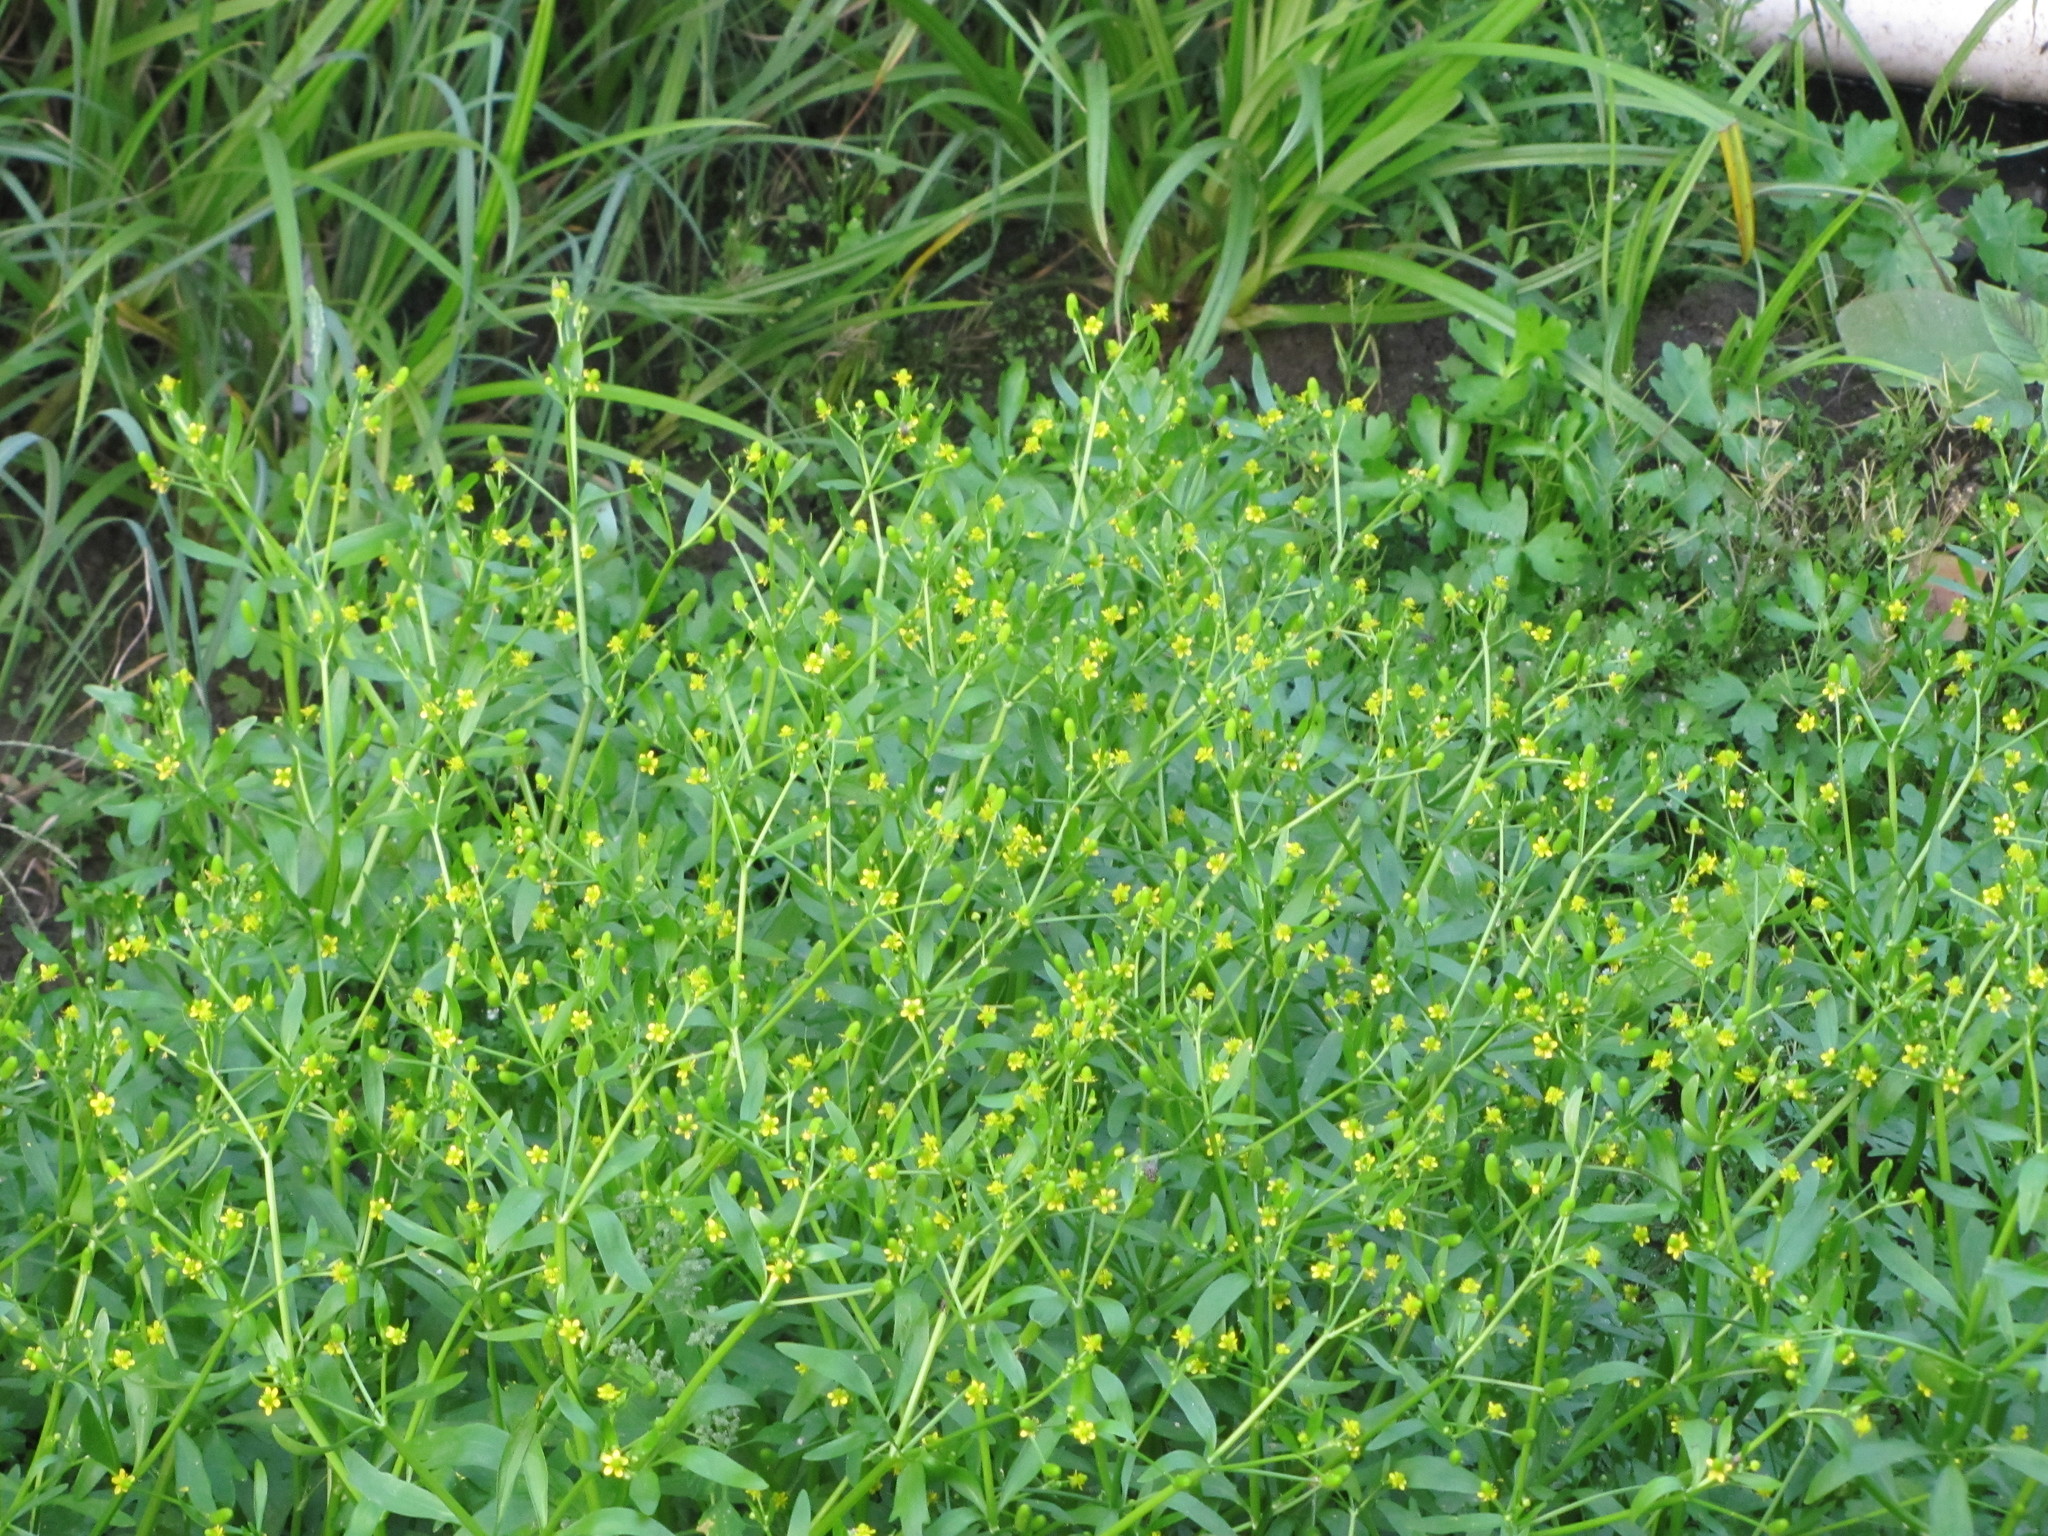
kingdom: Plantae
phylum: Tracheophyta
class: Magnoliopsida
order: Ranunculales
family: Ranunculaceae
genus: Ranunculus
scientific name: Ranunculus sceleratus
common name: Celery-leaved buttercup
